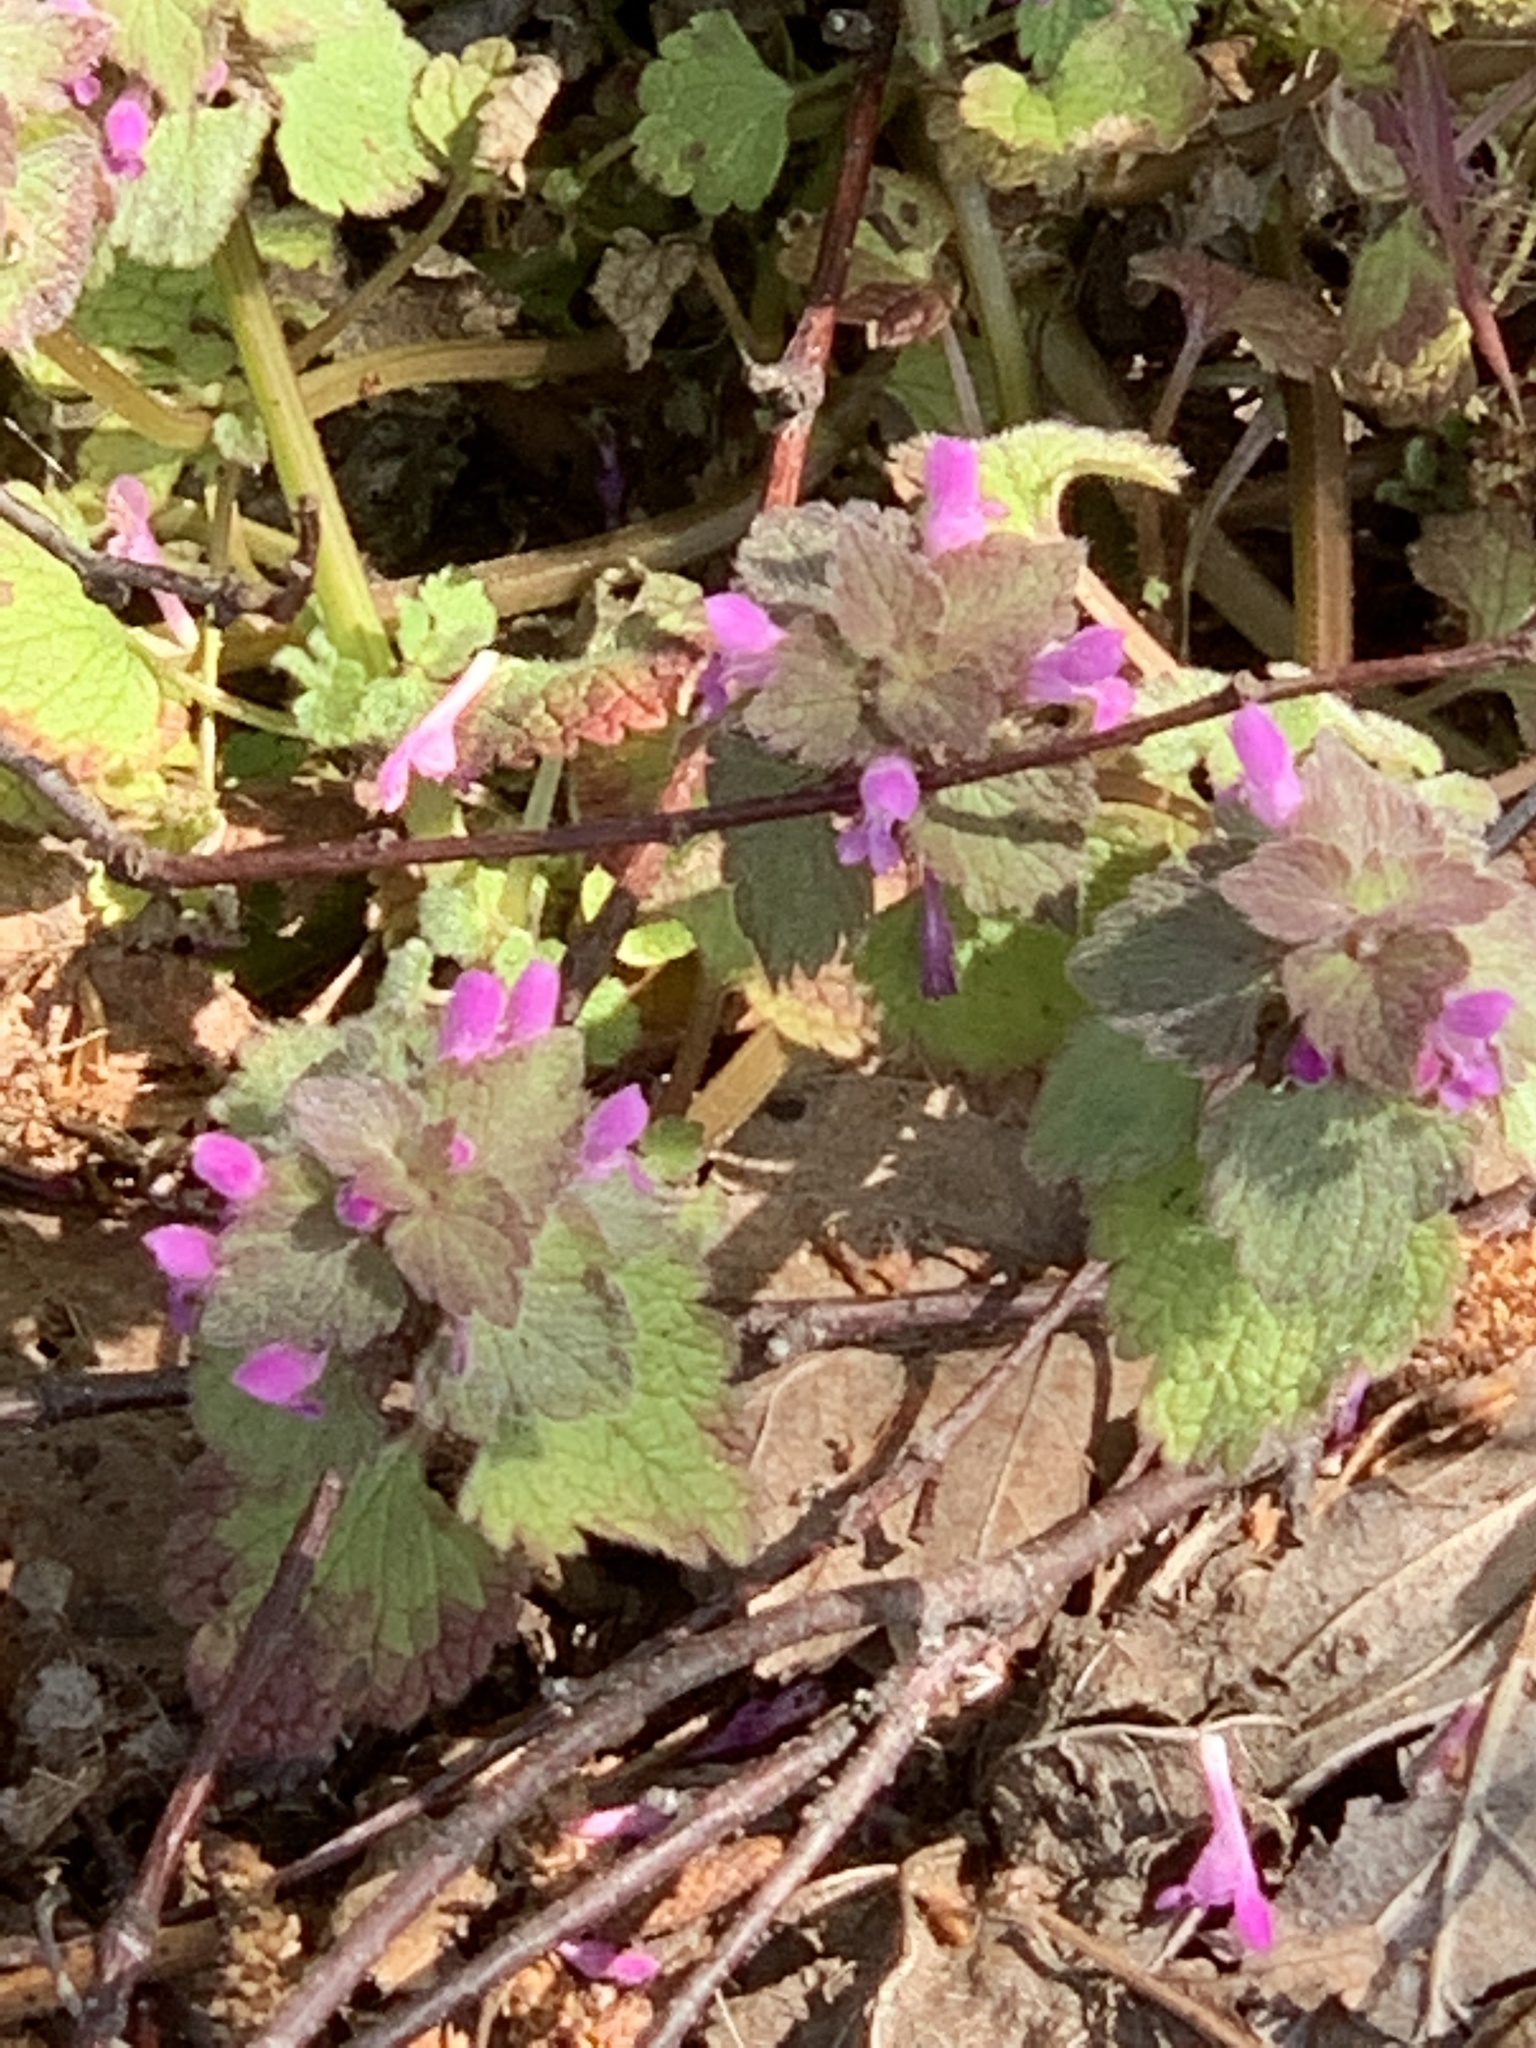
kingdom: Plantae
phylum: Tracheophyta
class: Magnoliopsida
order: Lamiales
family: Lamiaceae
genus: Lamium
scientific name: Lamium purpureum
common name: Red dead-nettle
